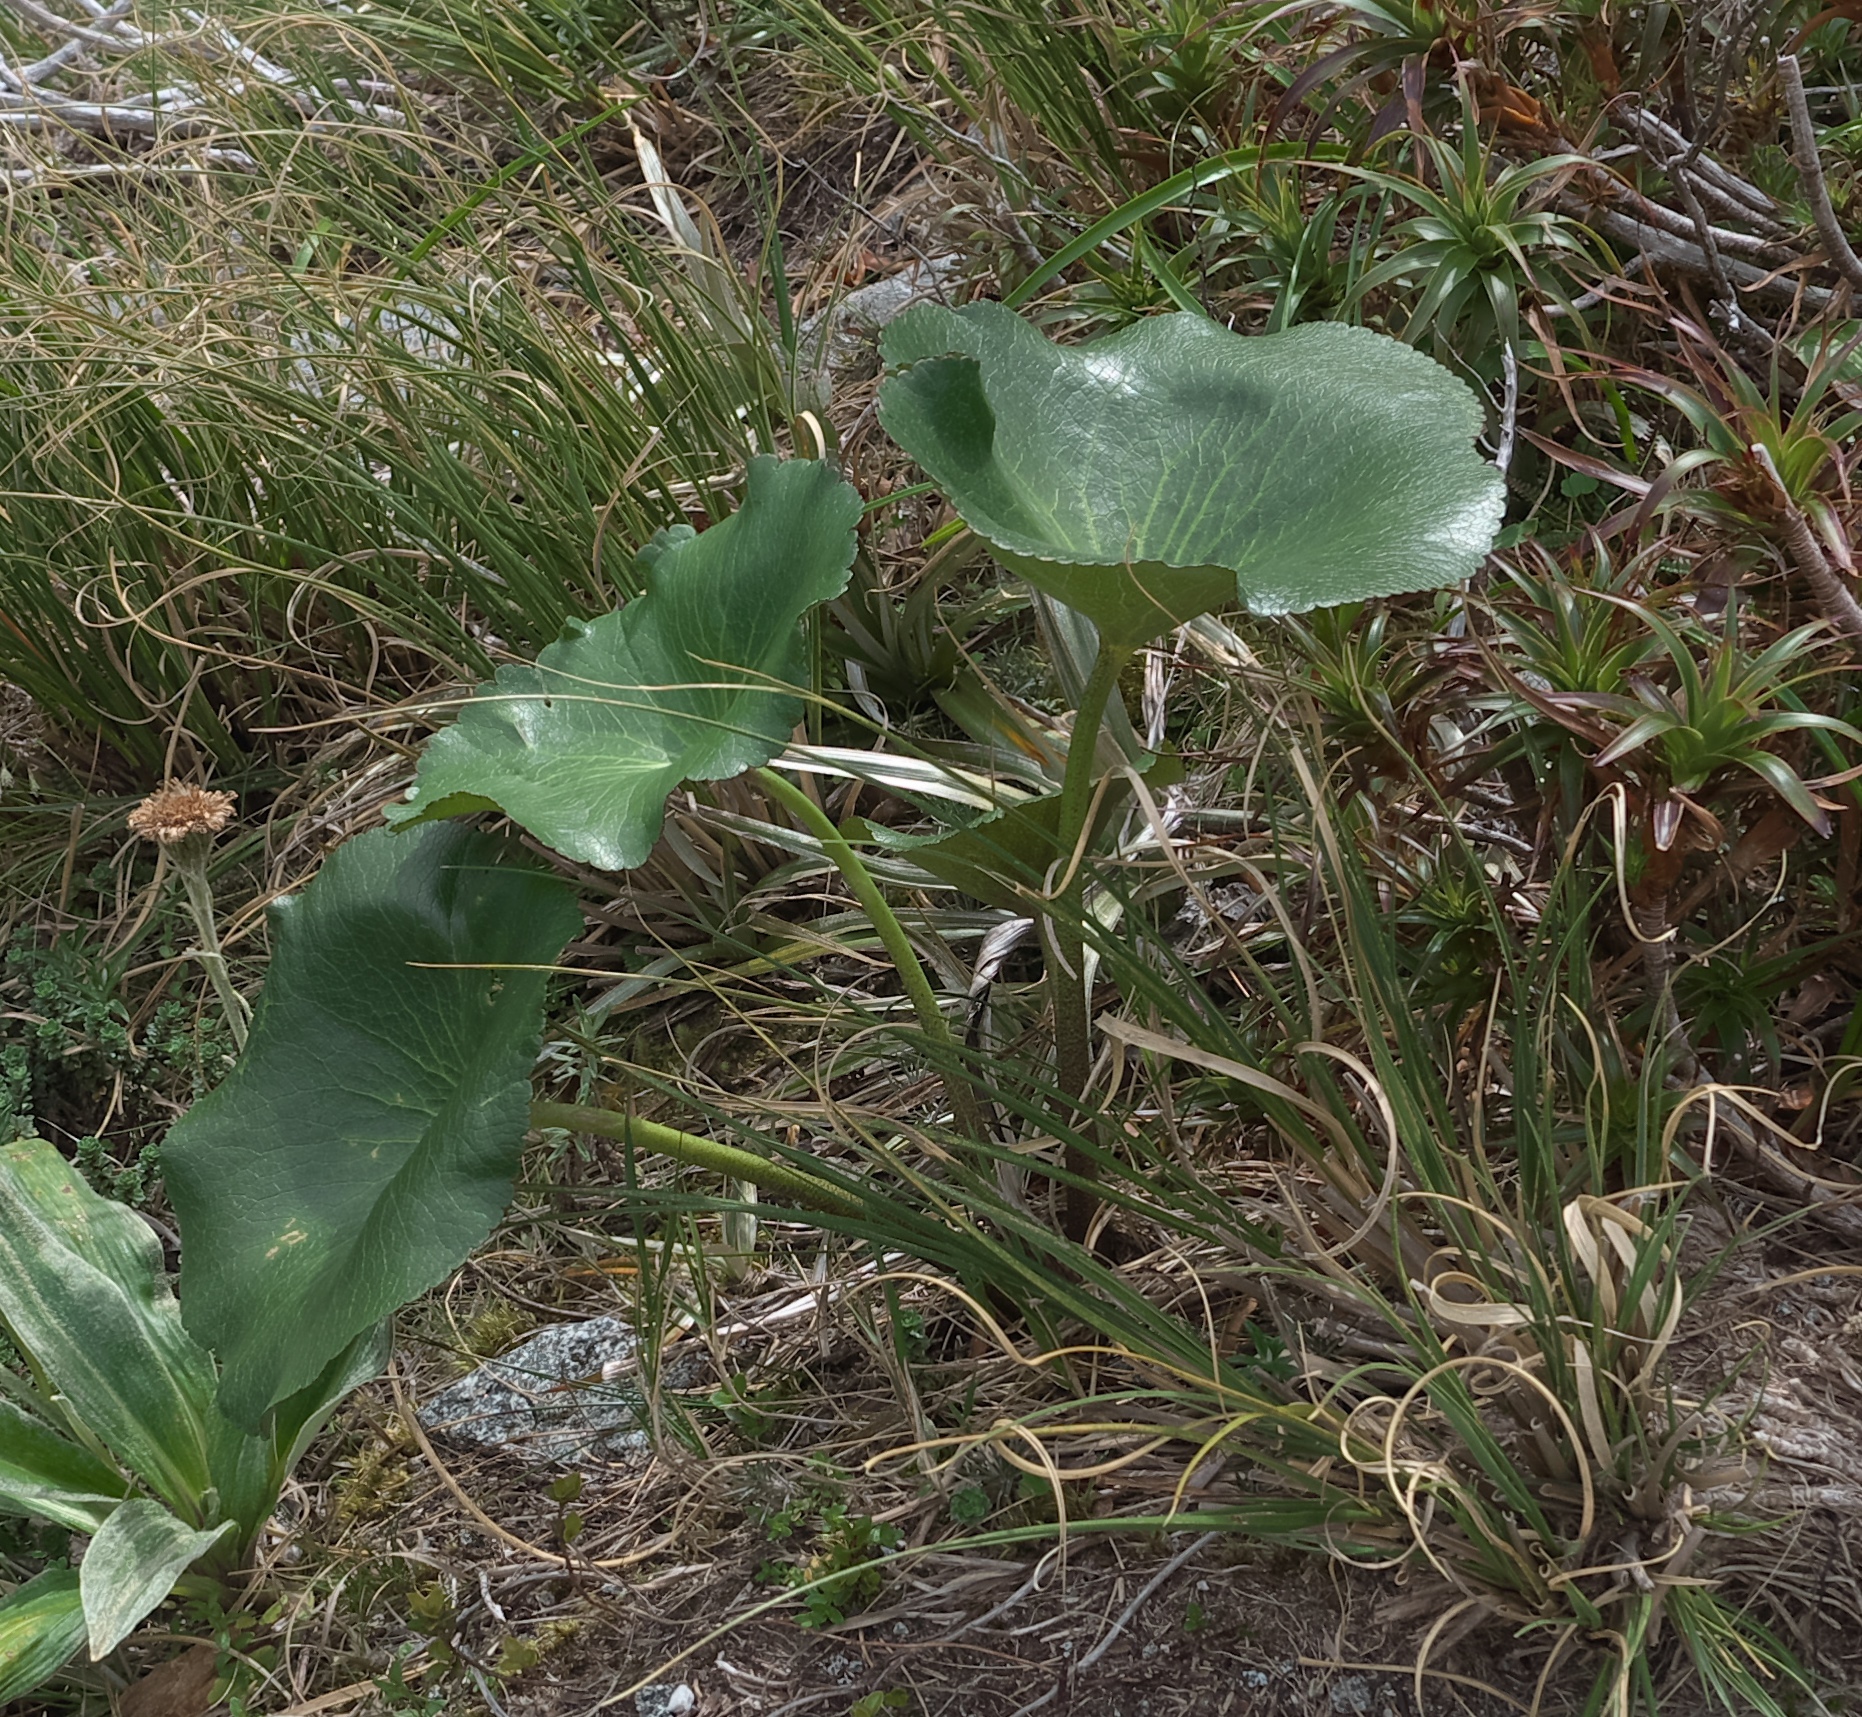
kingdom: Plantae
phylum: Tracheophyta
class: Magnoliopsida
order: Ranunculales
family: Ranunculaceae
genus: Ranunculus
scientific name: Ranunculus lyallii
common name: Mountain-lily
